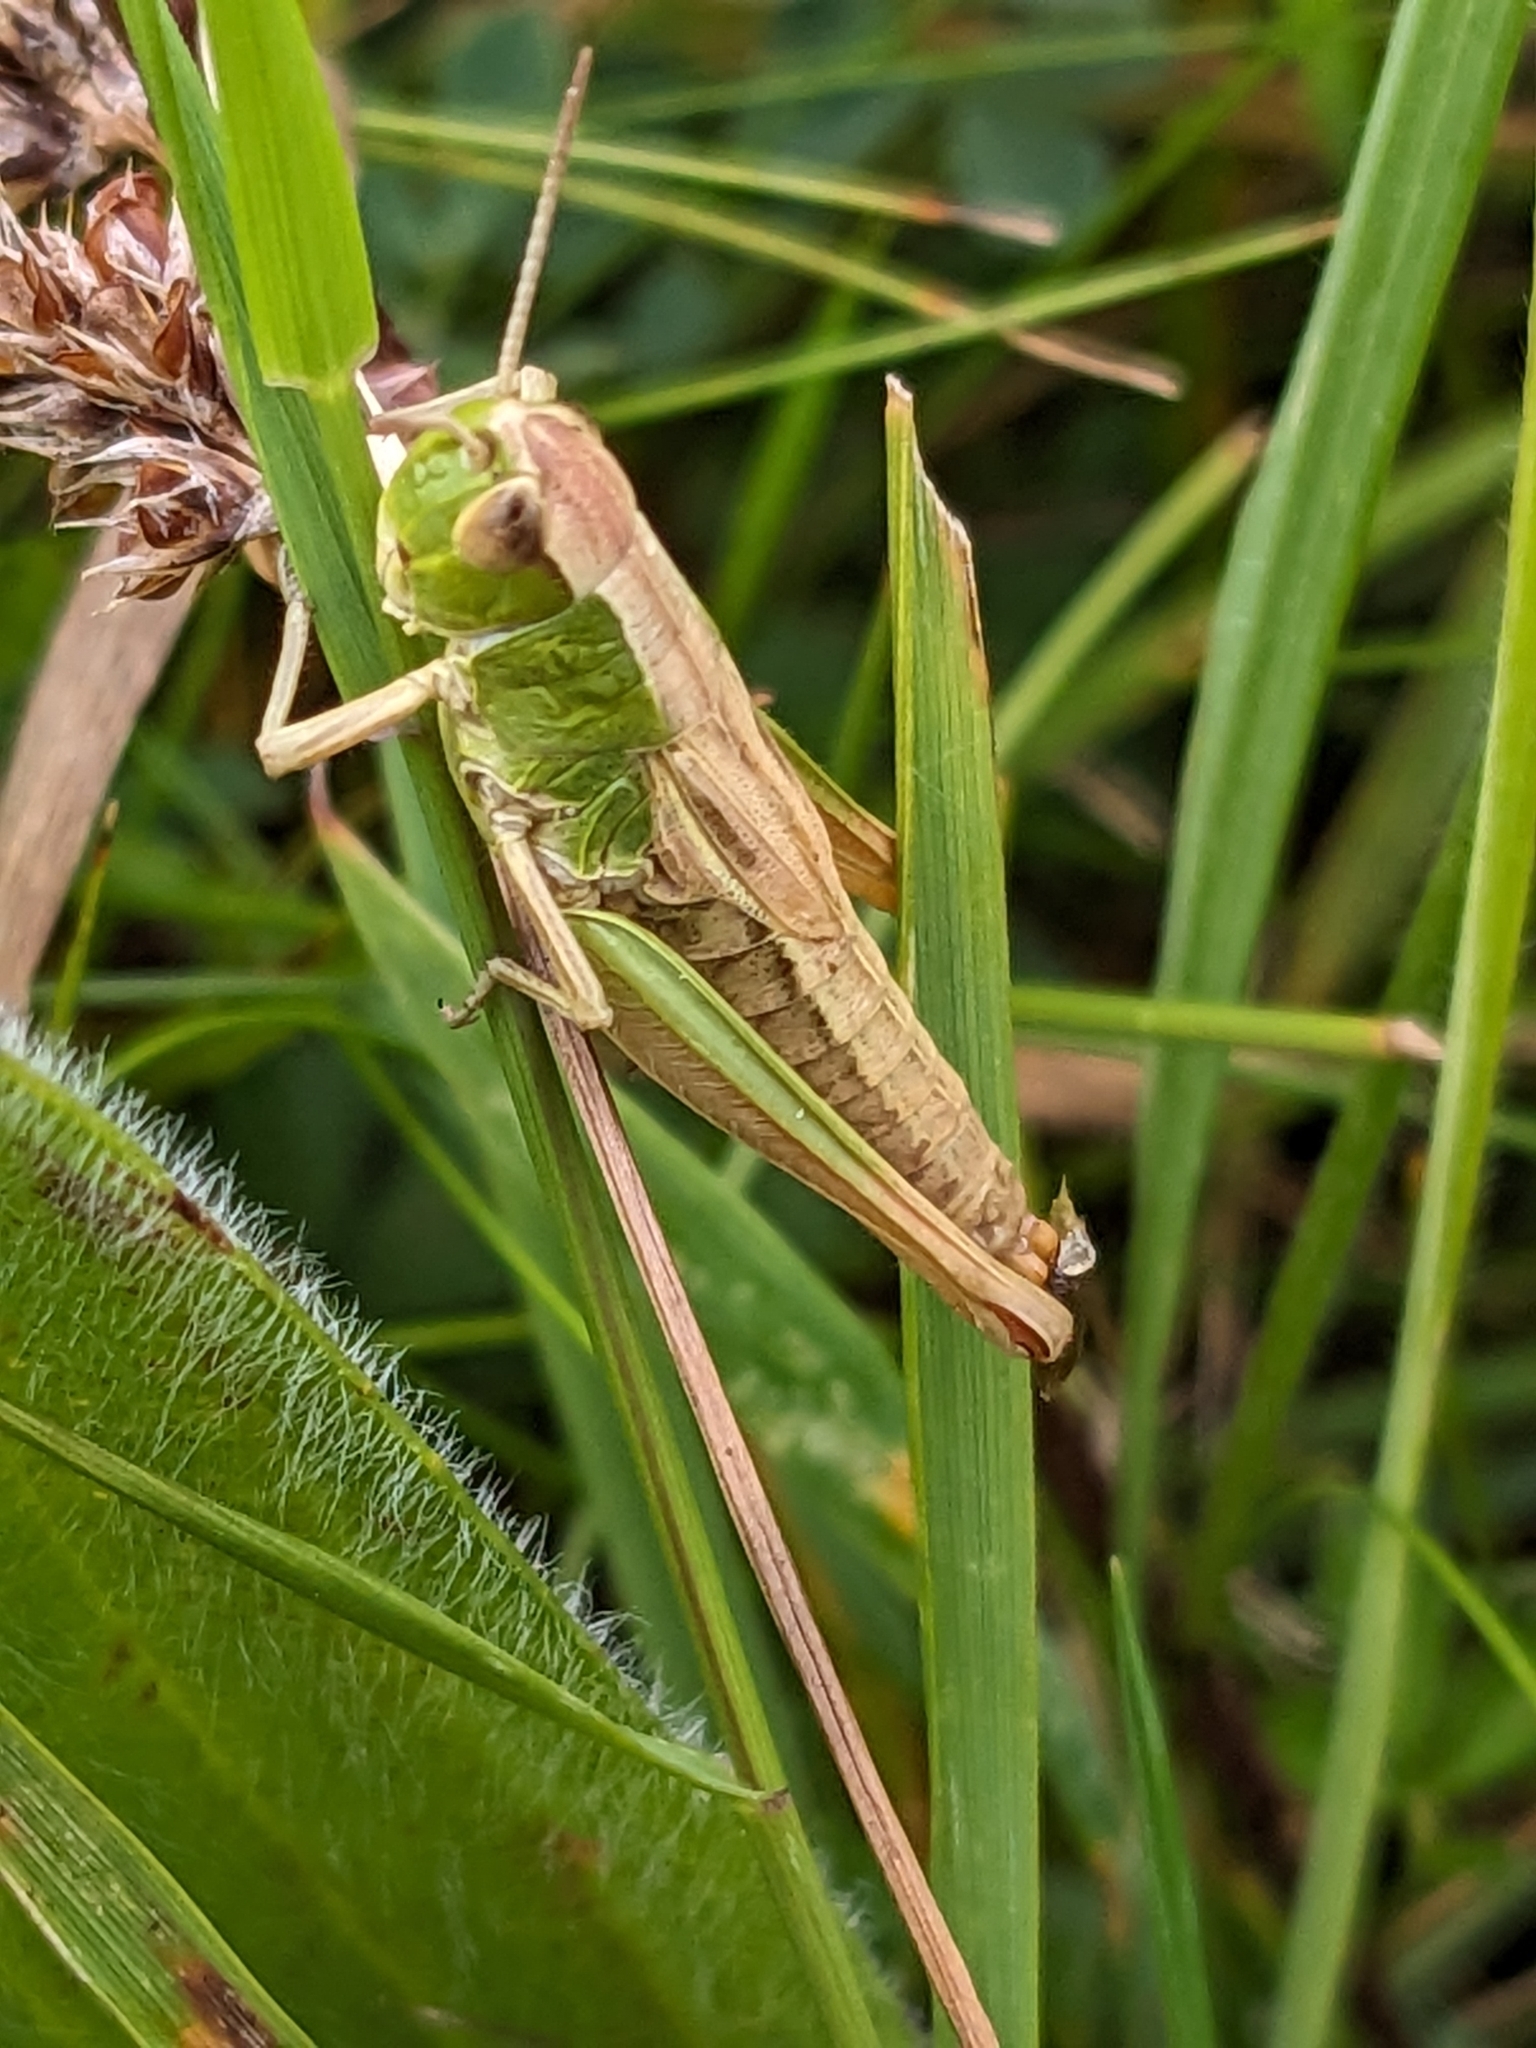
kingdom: Animalia
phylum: Arthropoda
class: Insecta
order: Orthoptera
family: Acrididae
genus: Pseudochorthippus
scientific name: Pseudochorthippus parallelus
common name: Meadow grasshopper
